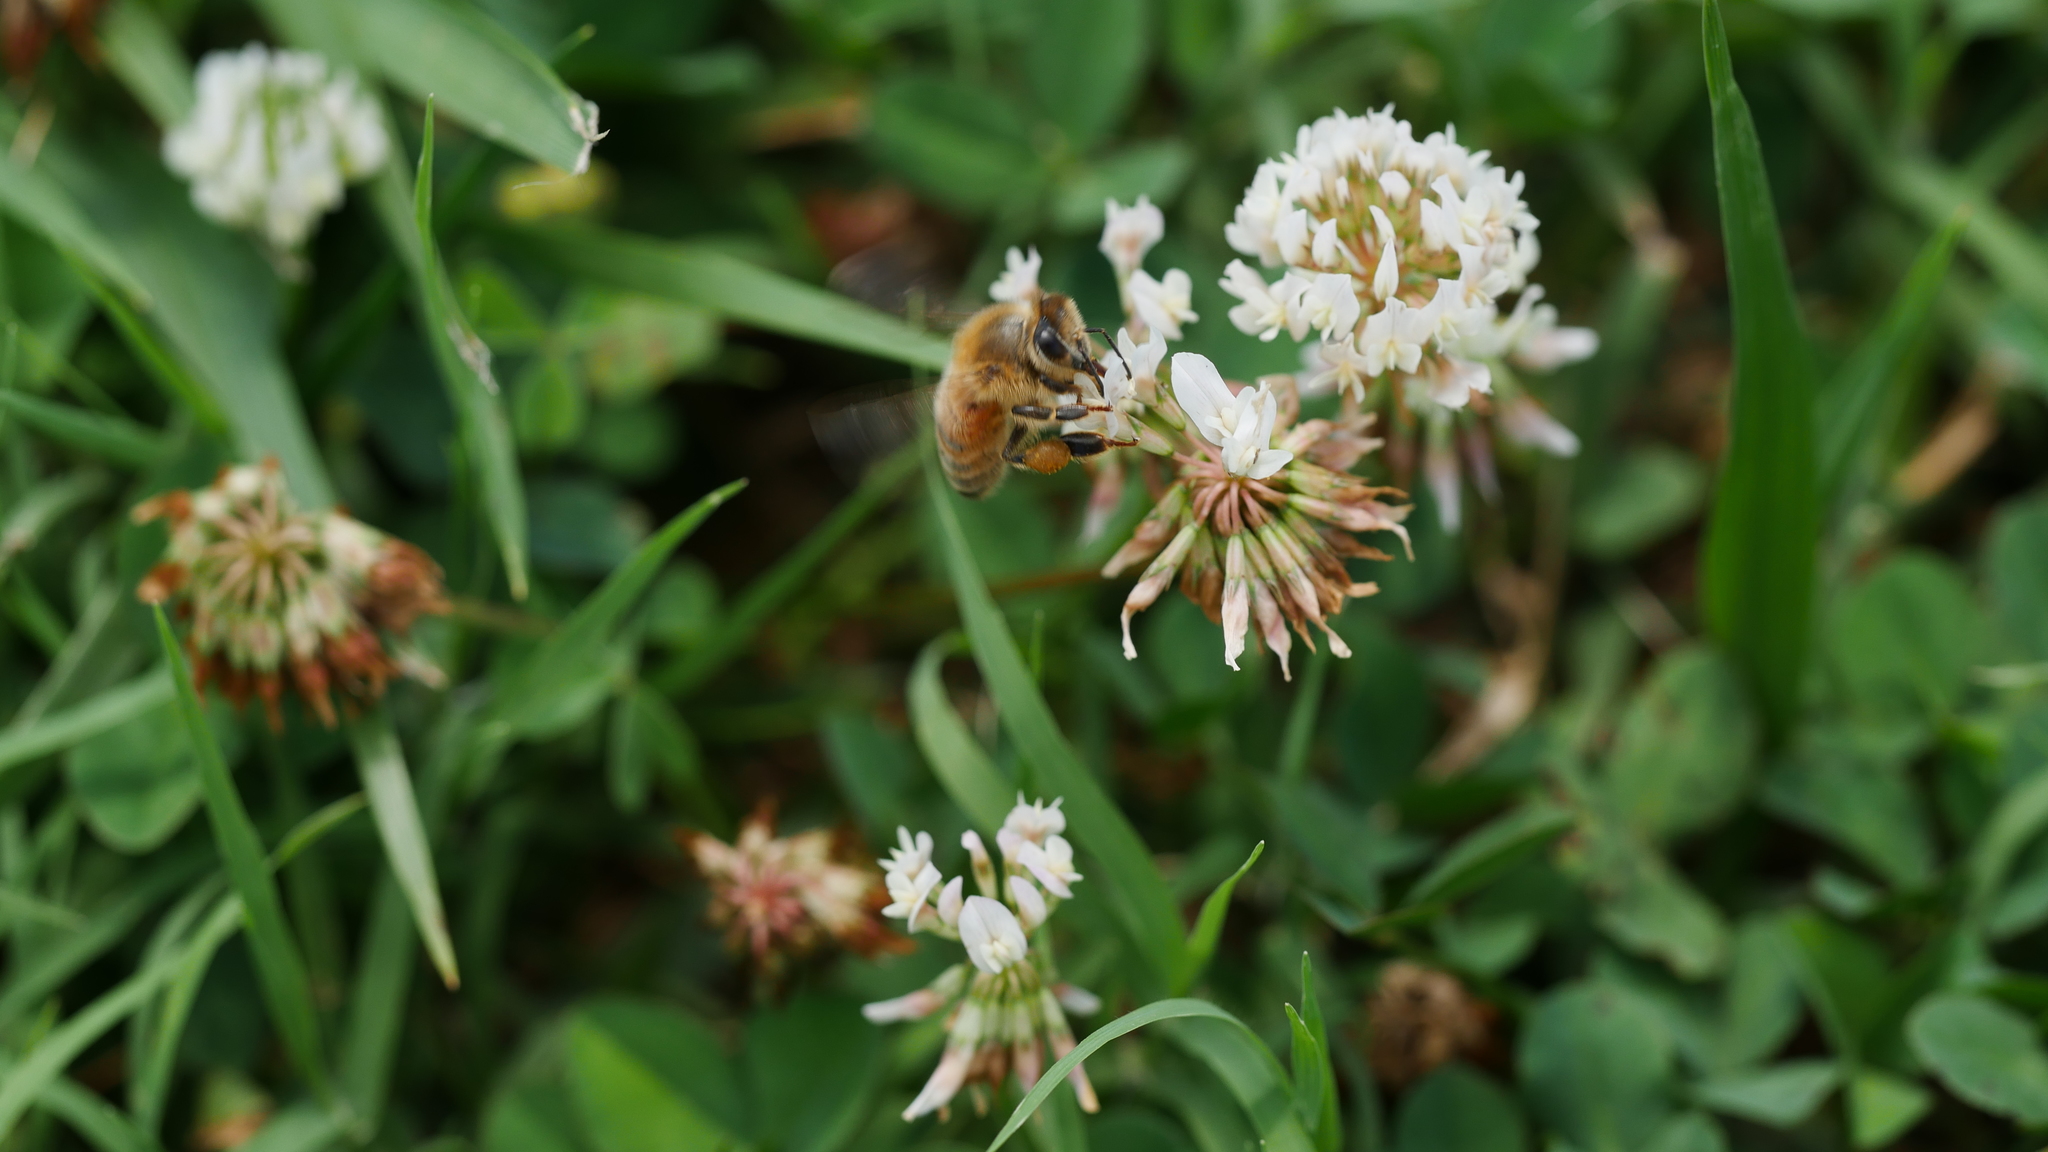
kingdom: Animalia
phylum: Arthropoda
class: Insecta
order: Hymenoptera
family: Apidae
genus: Apis
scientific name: Apis mellifera
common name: Honey bee
